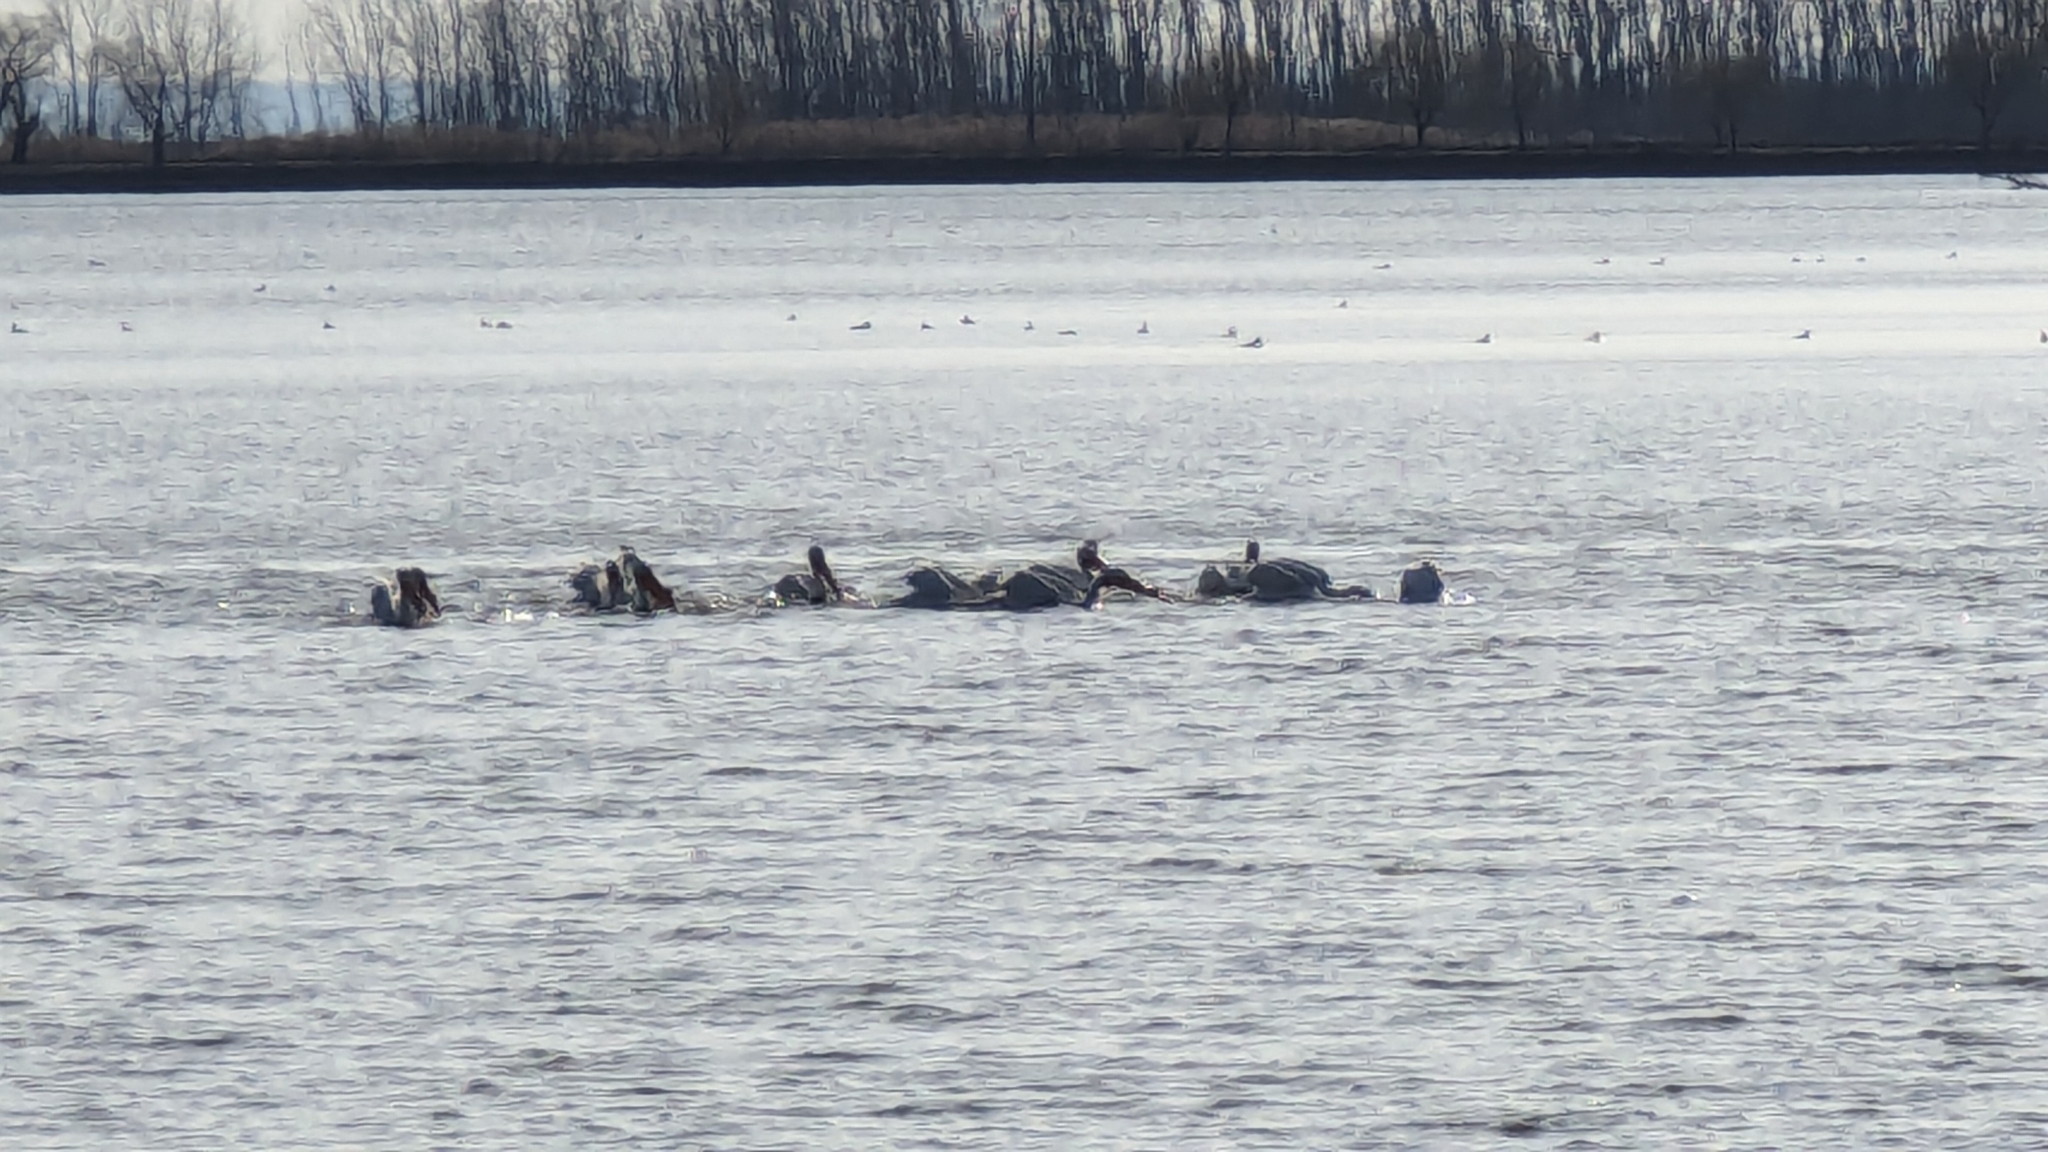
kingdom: Animalia
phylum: Chordata
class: Aves
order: Pelecaniformes
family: Pelecanidae
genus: Pelecanus
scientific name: Pelecanus erythrorhynchos
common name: American white pelican
